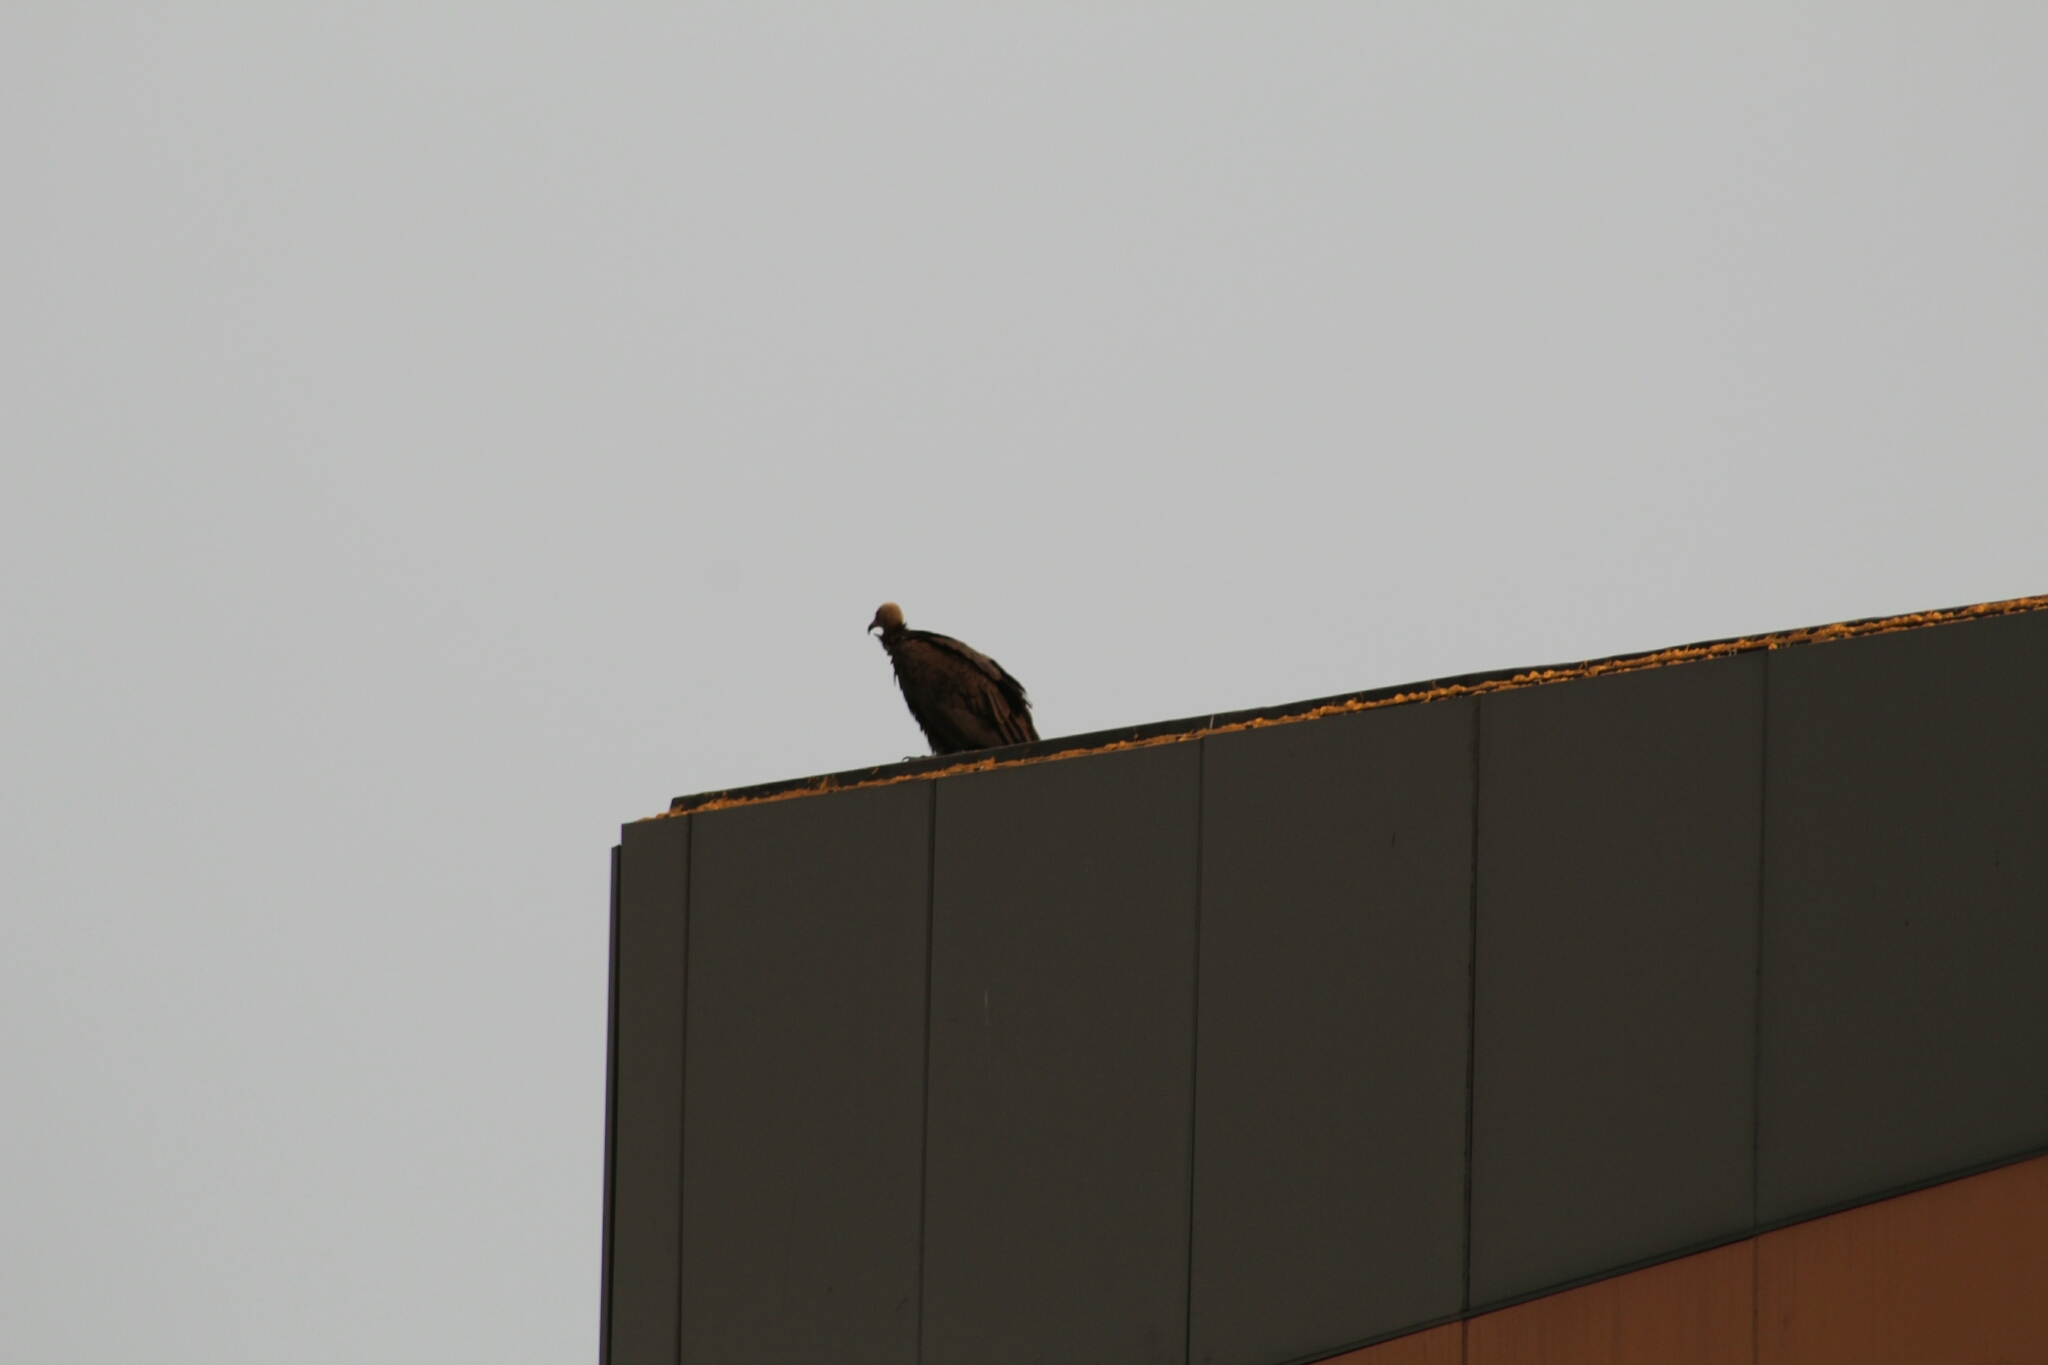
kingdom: Animalia
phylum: Chordata
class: Aves
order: Accipitriformes
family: Accipitridae
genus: Necrosyrtes
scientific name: Necrosyrtes monachus
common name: Hooded vulture
